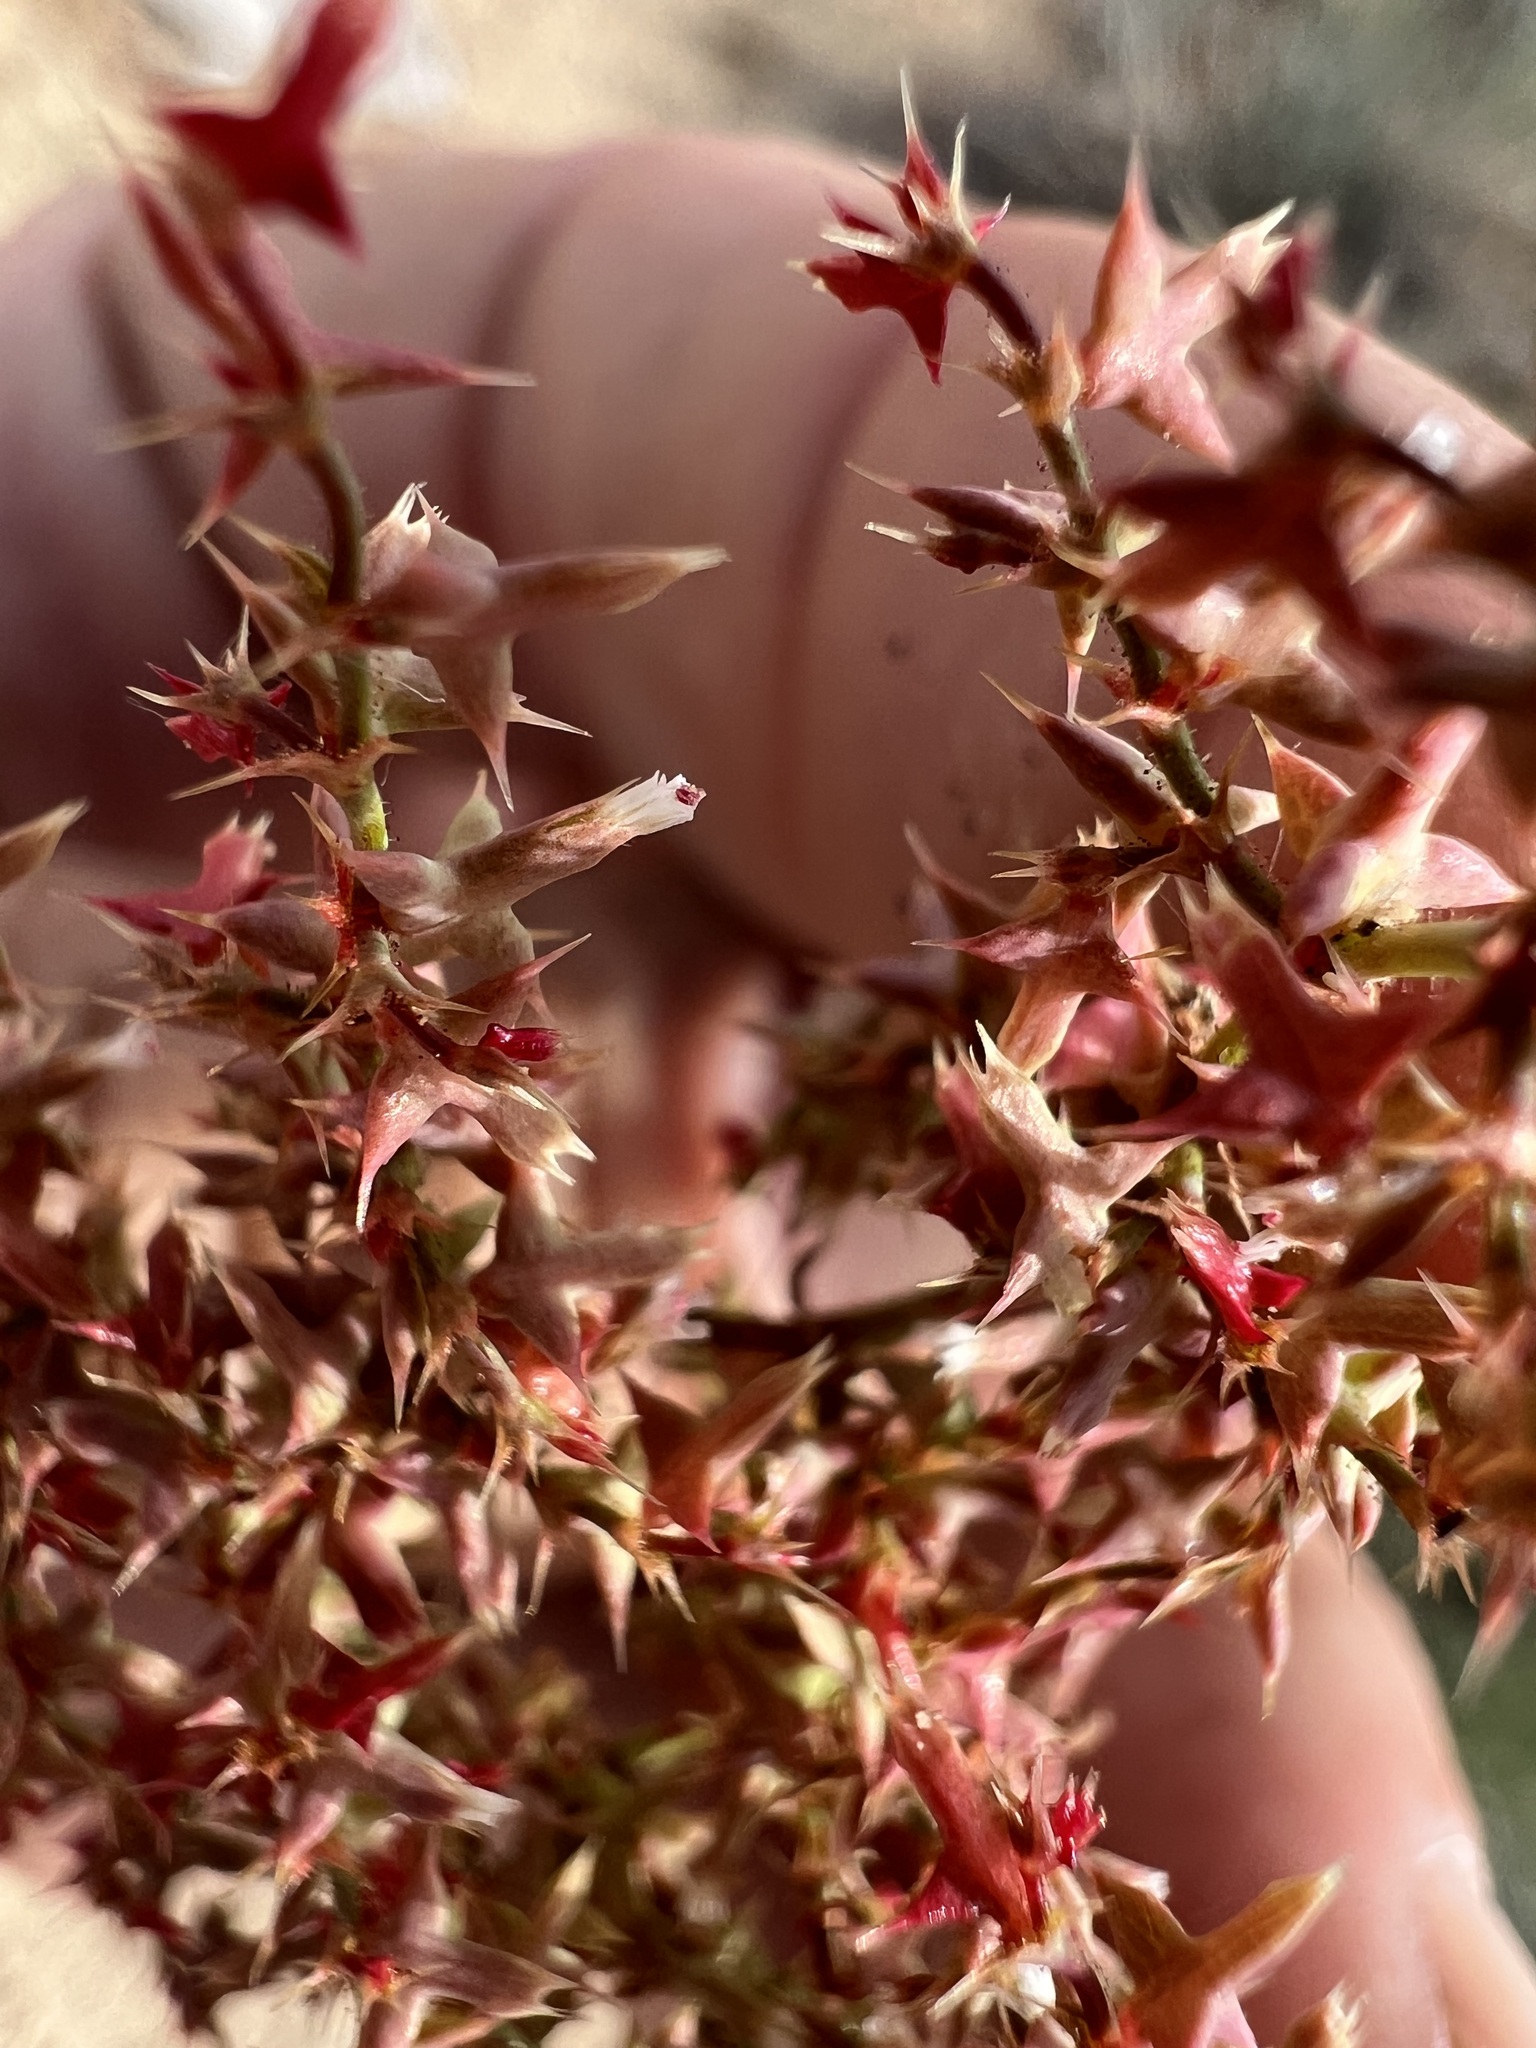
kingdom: Plantae
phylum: Tracheophyta
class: Magnoliopsida
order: Caryophyllales
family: Polygonaceae
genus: Centrostegia
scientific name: Centrostegia thurberi
